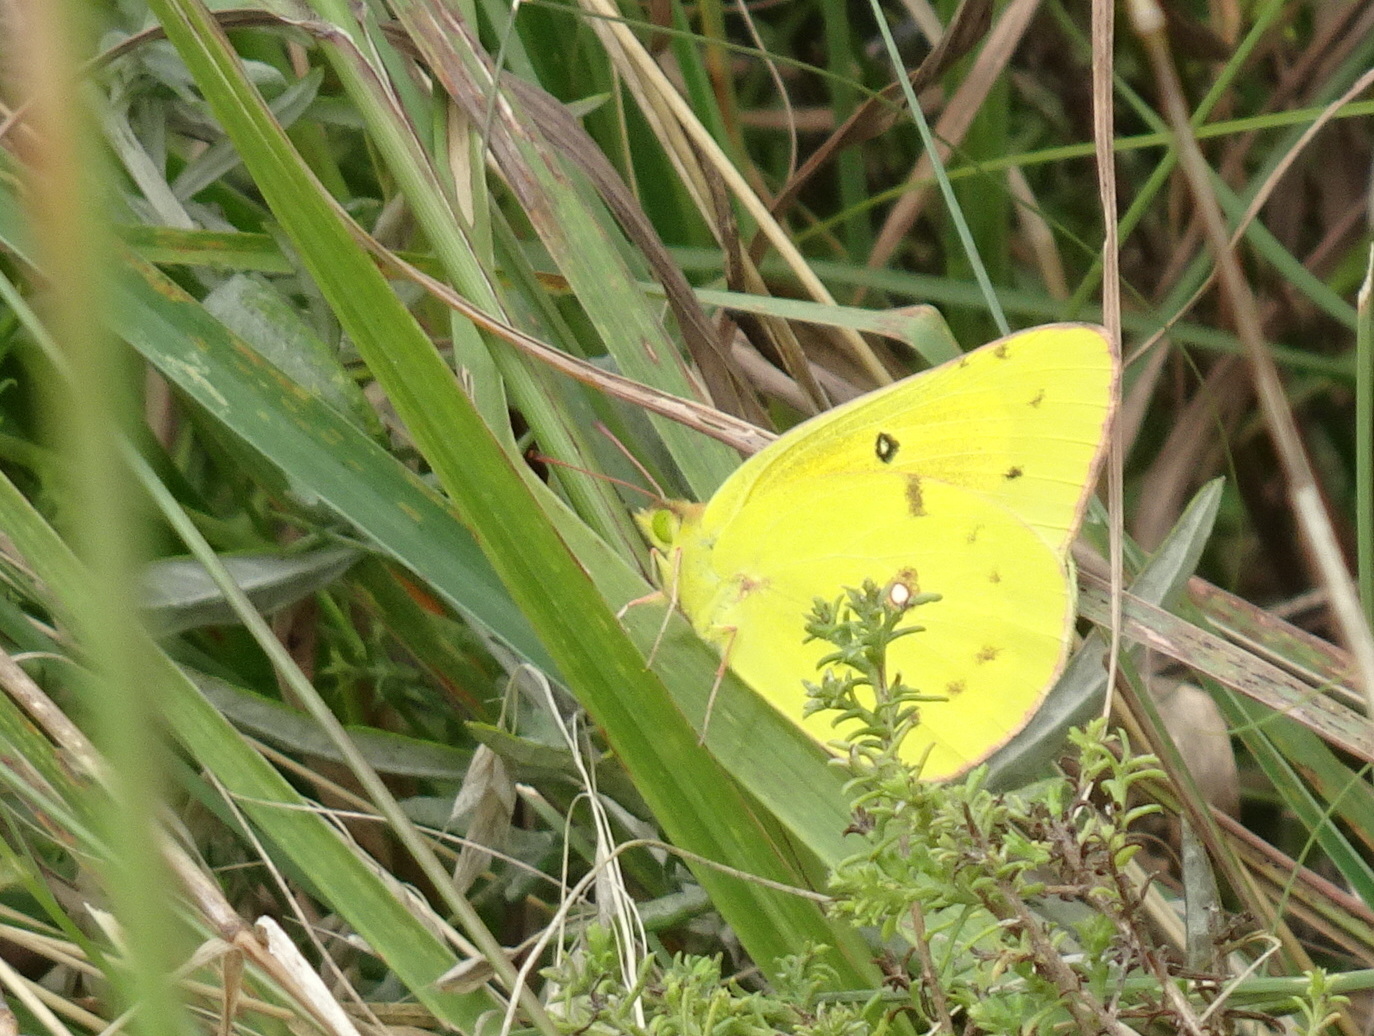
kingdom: Animalia
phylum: Arthropoda
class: Insecta
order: Lepidoptera
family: Pieridae
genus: Colias
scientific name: Colias eurytheme
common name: Alfalfa butterfly
